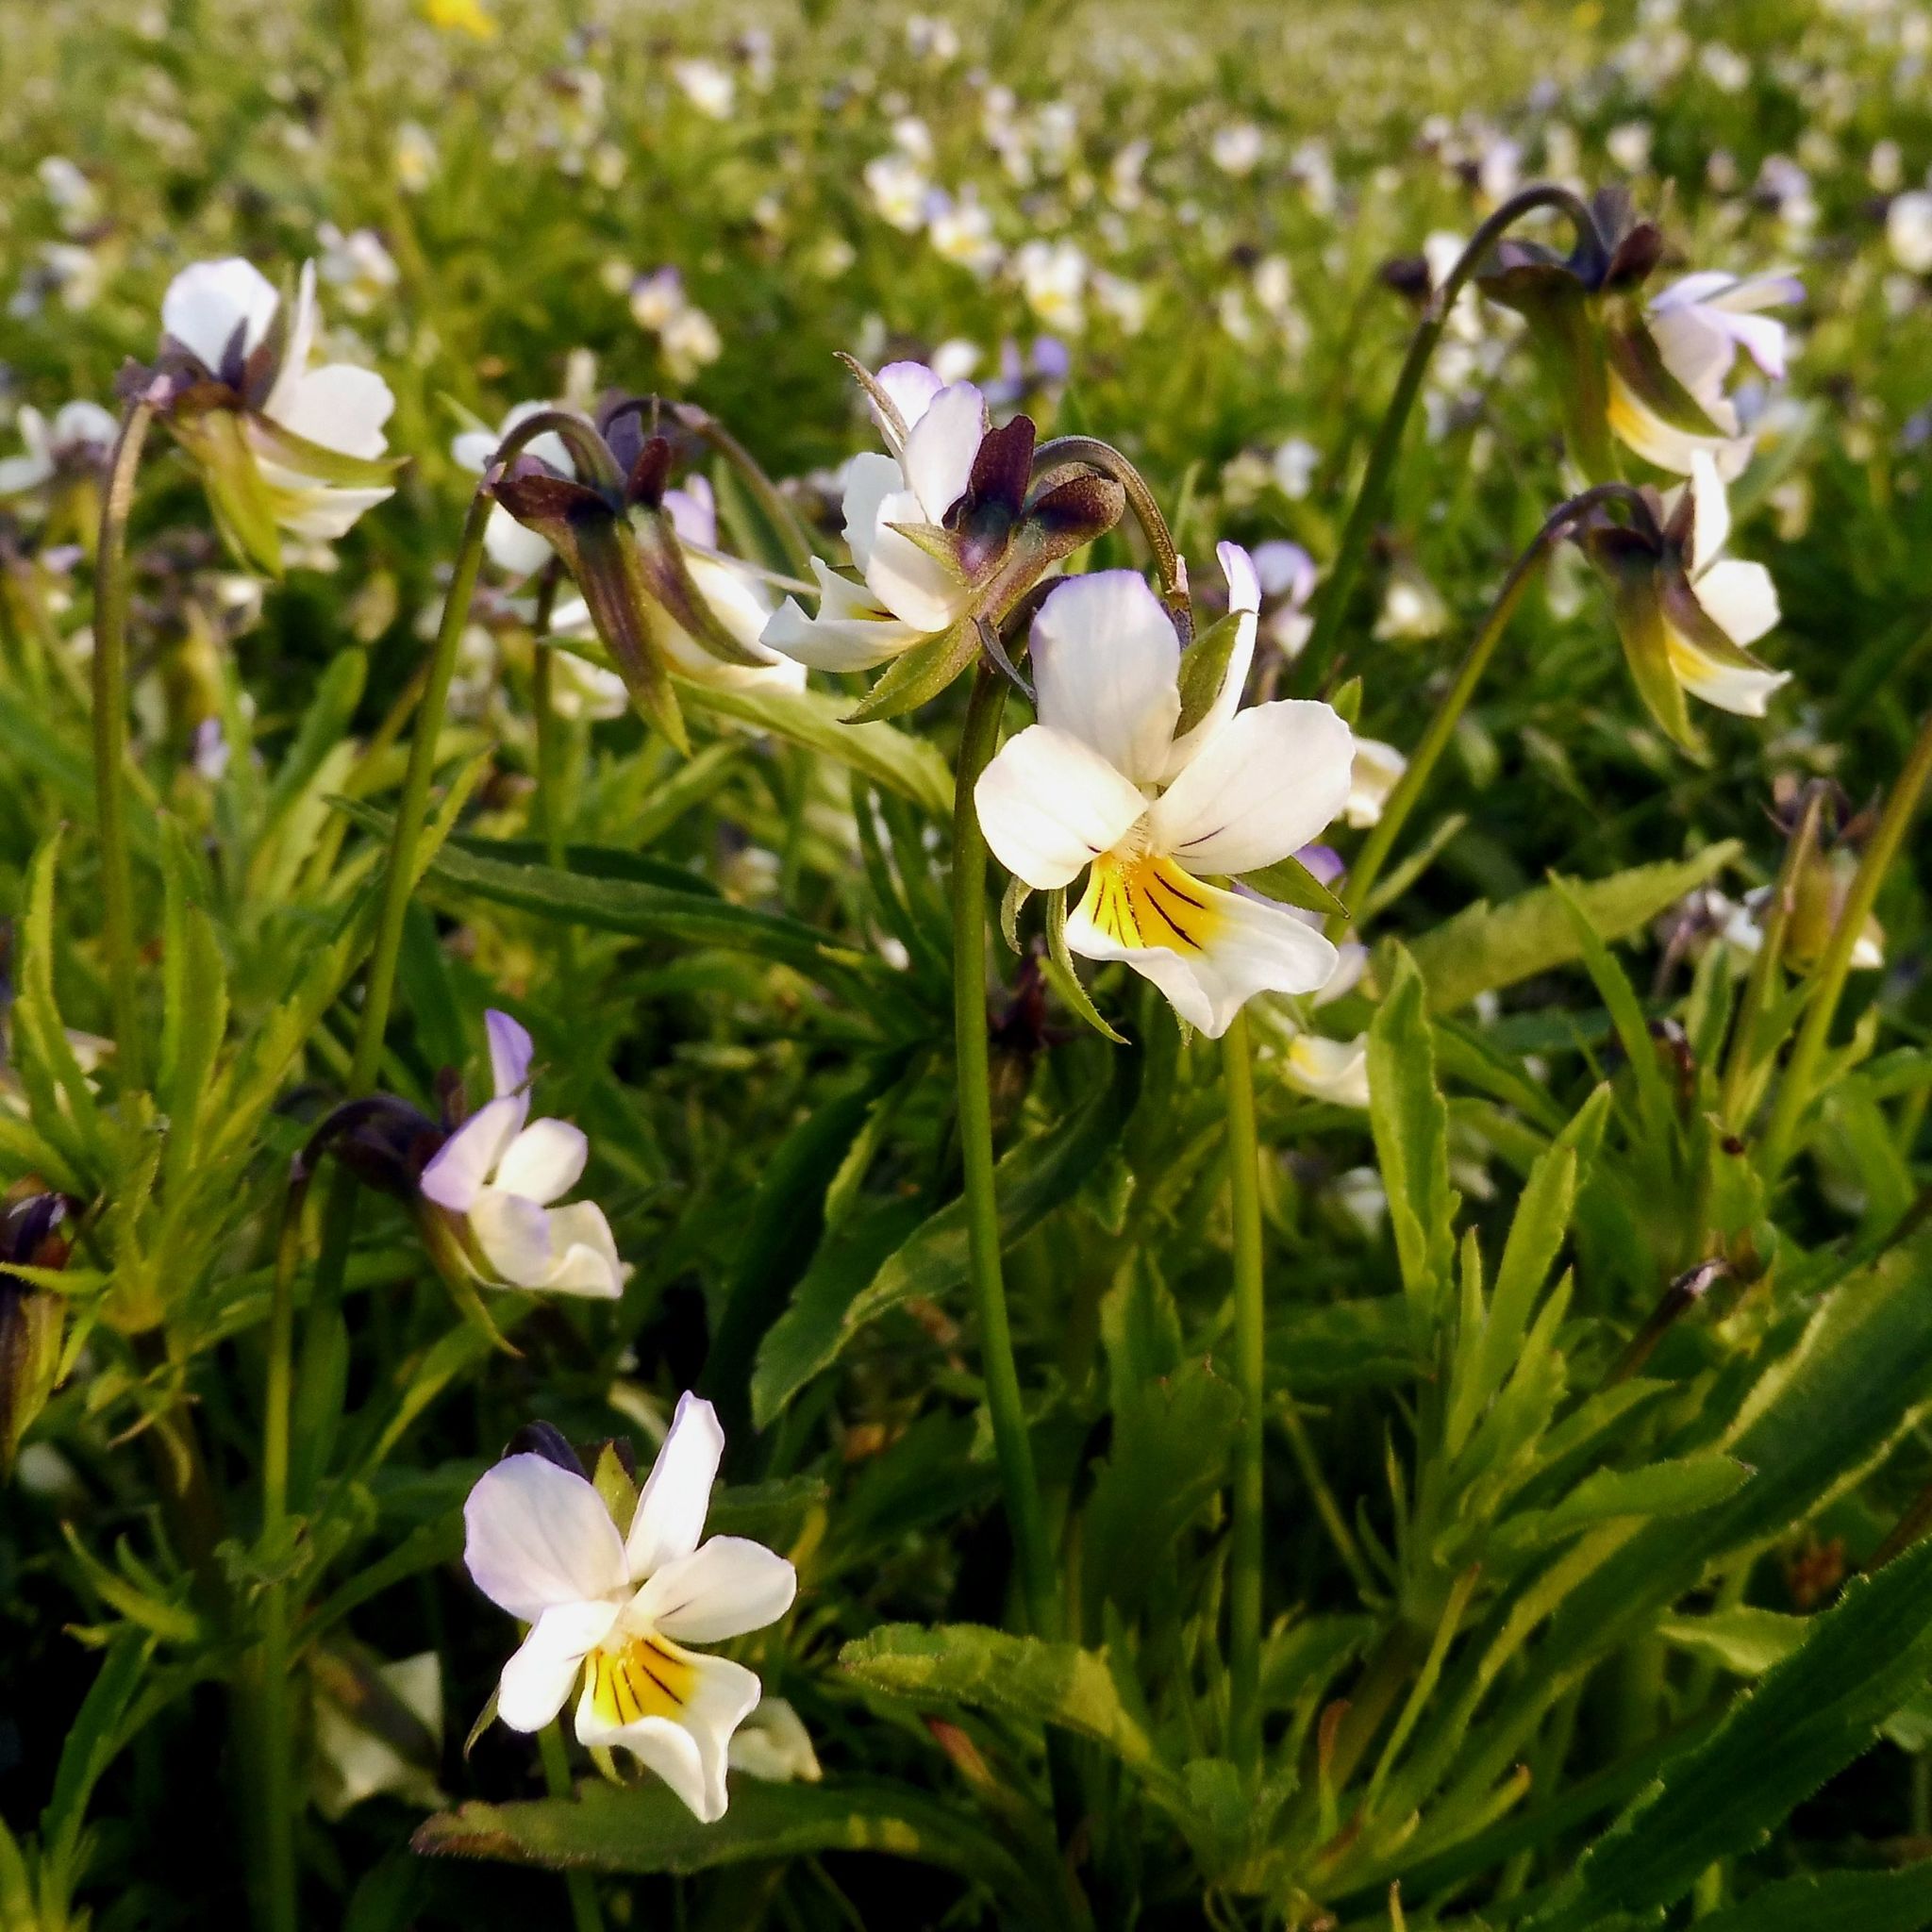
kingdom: Plantae
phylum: Tracheophyta
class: Magnoliopsida
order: Malpighiales
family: Violaceae
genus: Viola
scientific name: Viola arvensis
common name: Field pansy
